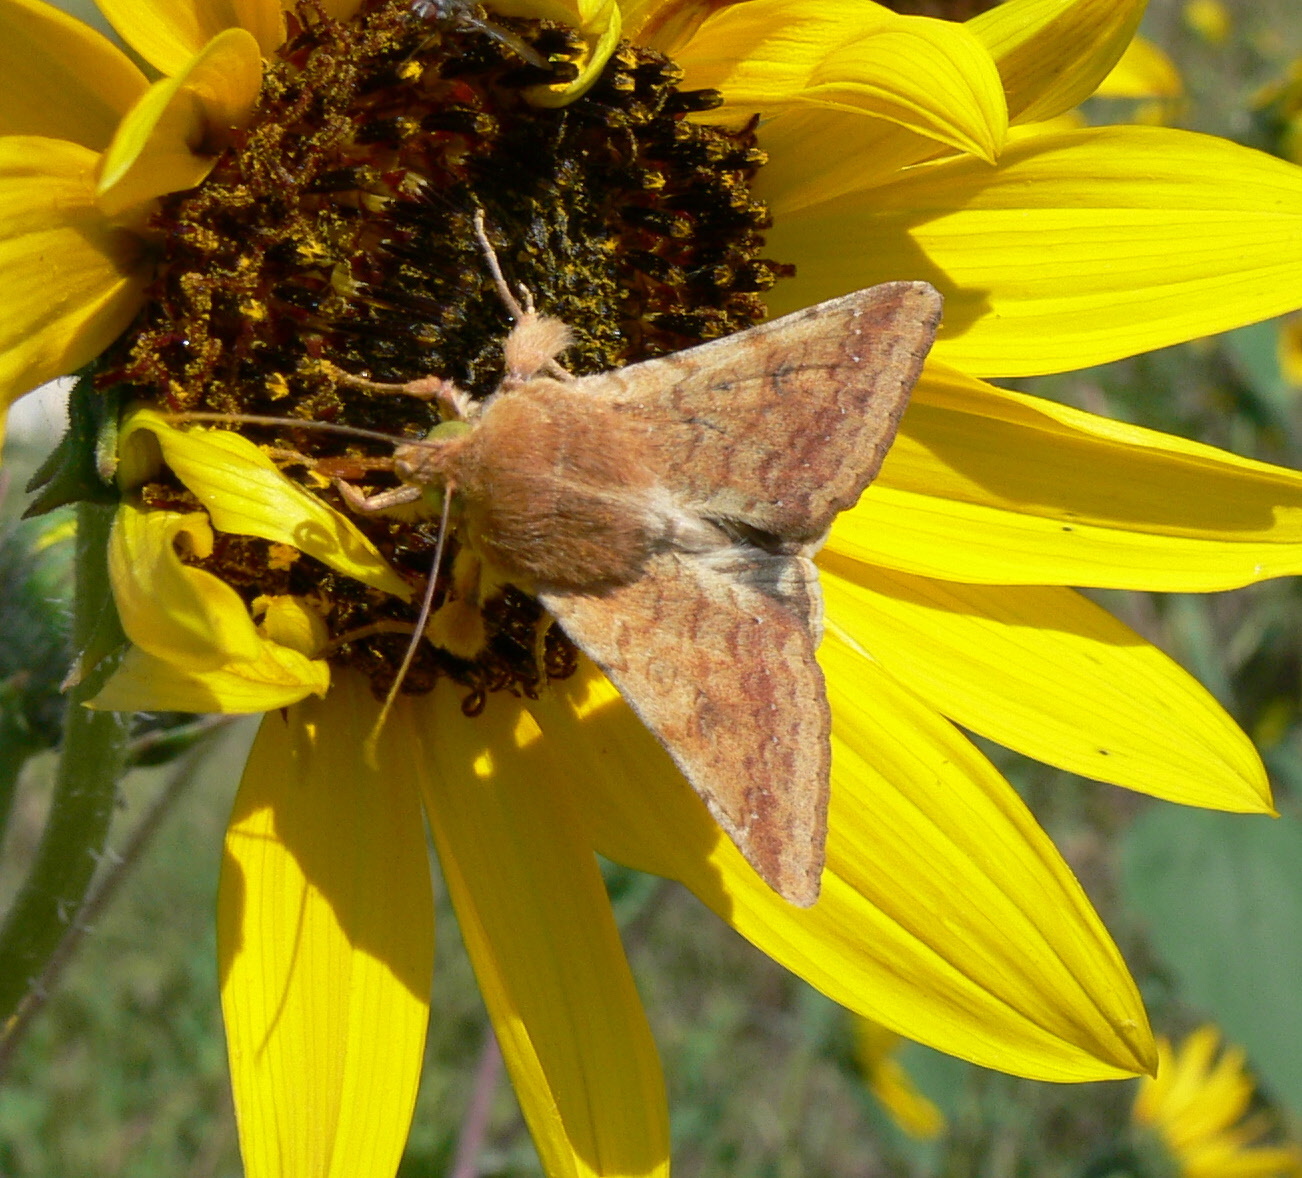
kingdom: Animalia
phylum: Arthropoda
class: Insecta
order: Lepidoptera
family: Noctuidae
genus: Helicoverpa
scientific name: Helicoverpa zea
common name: Bollworm
